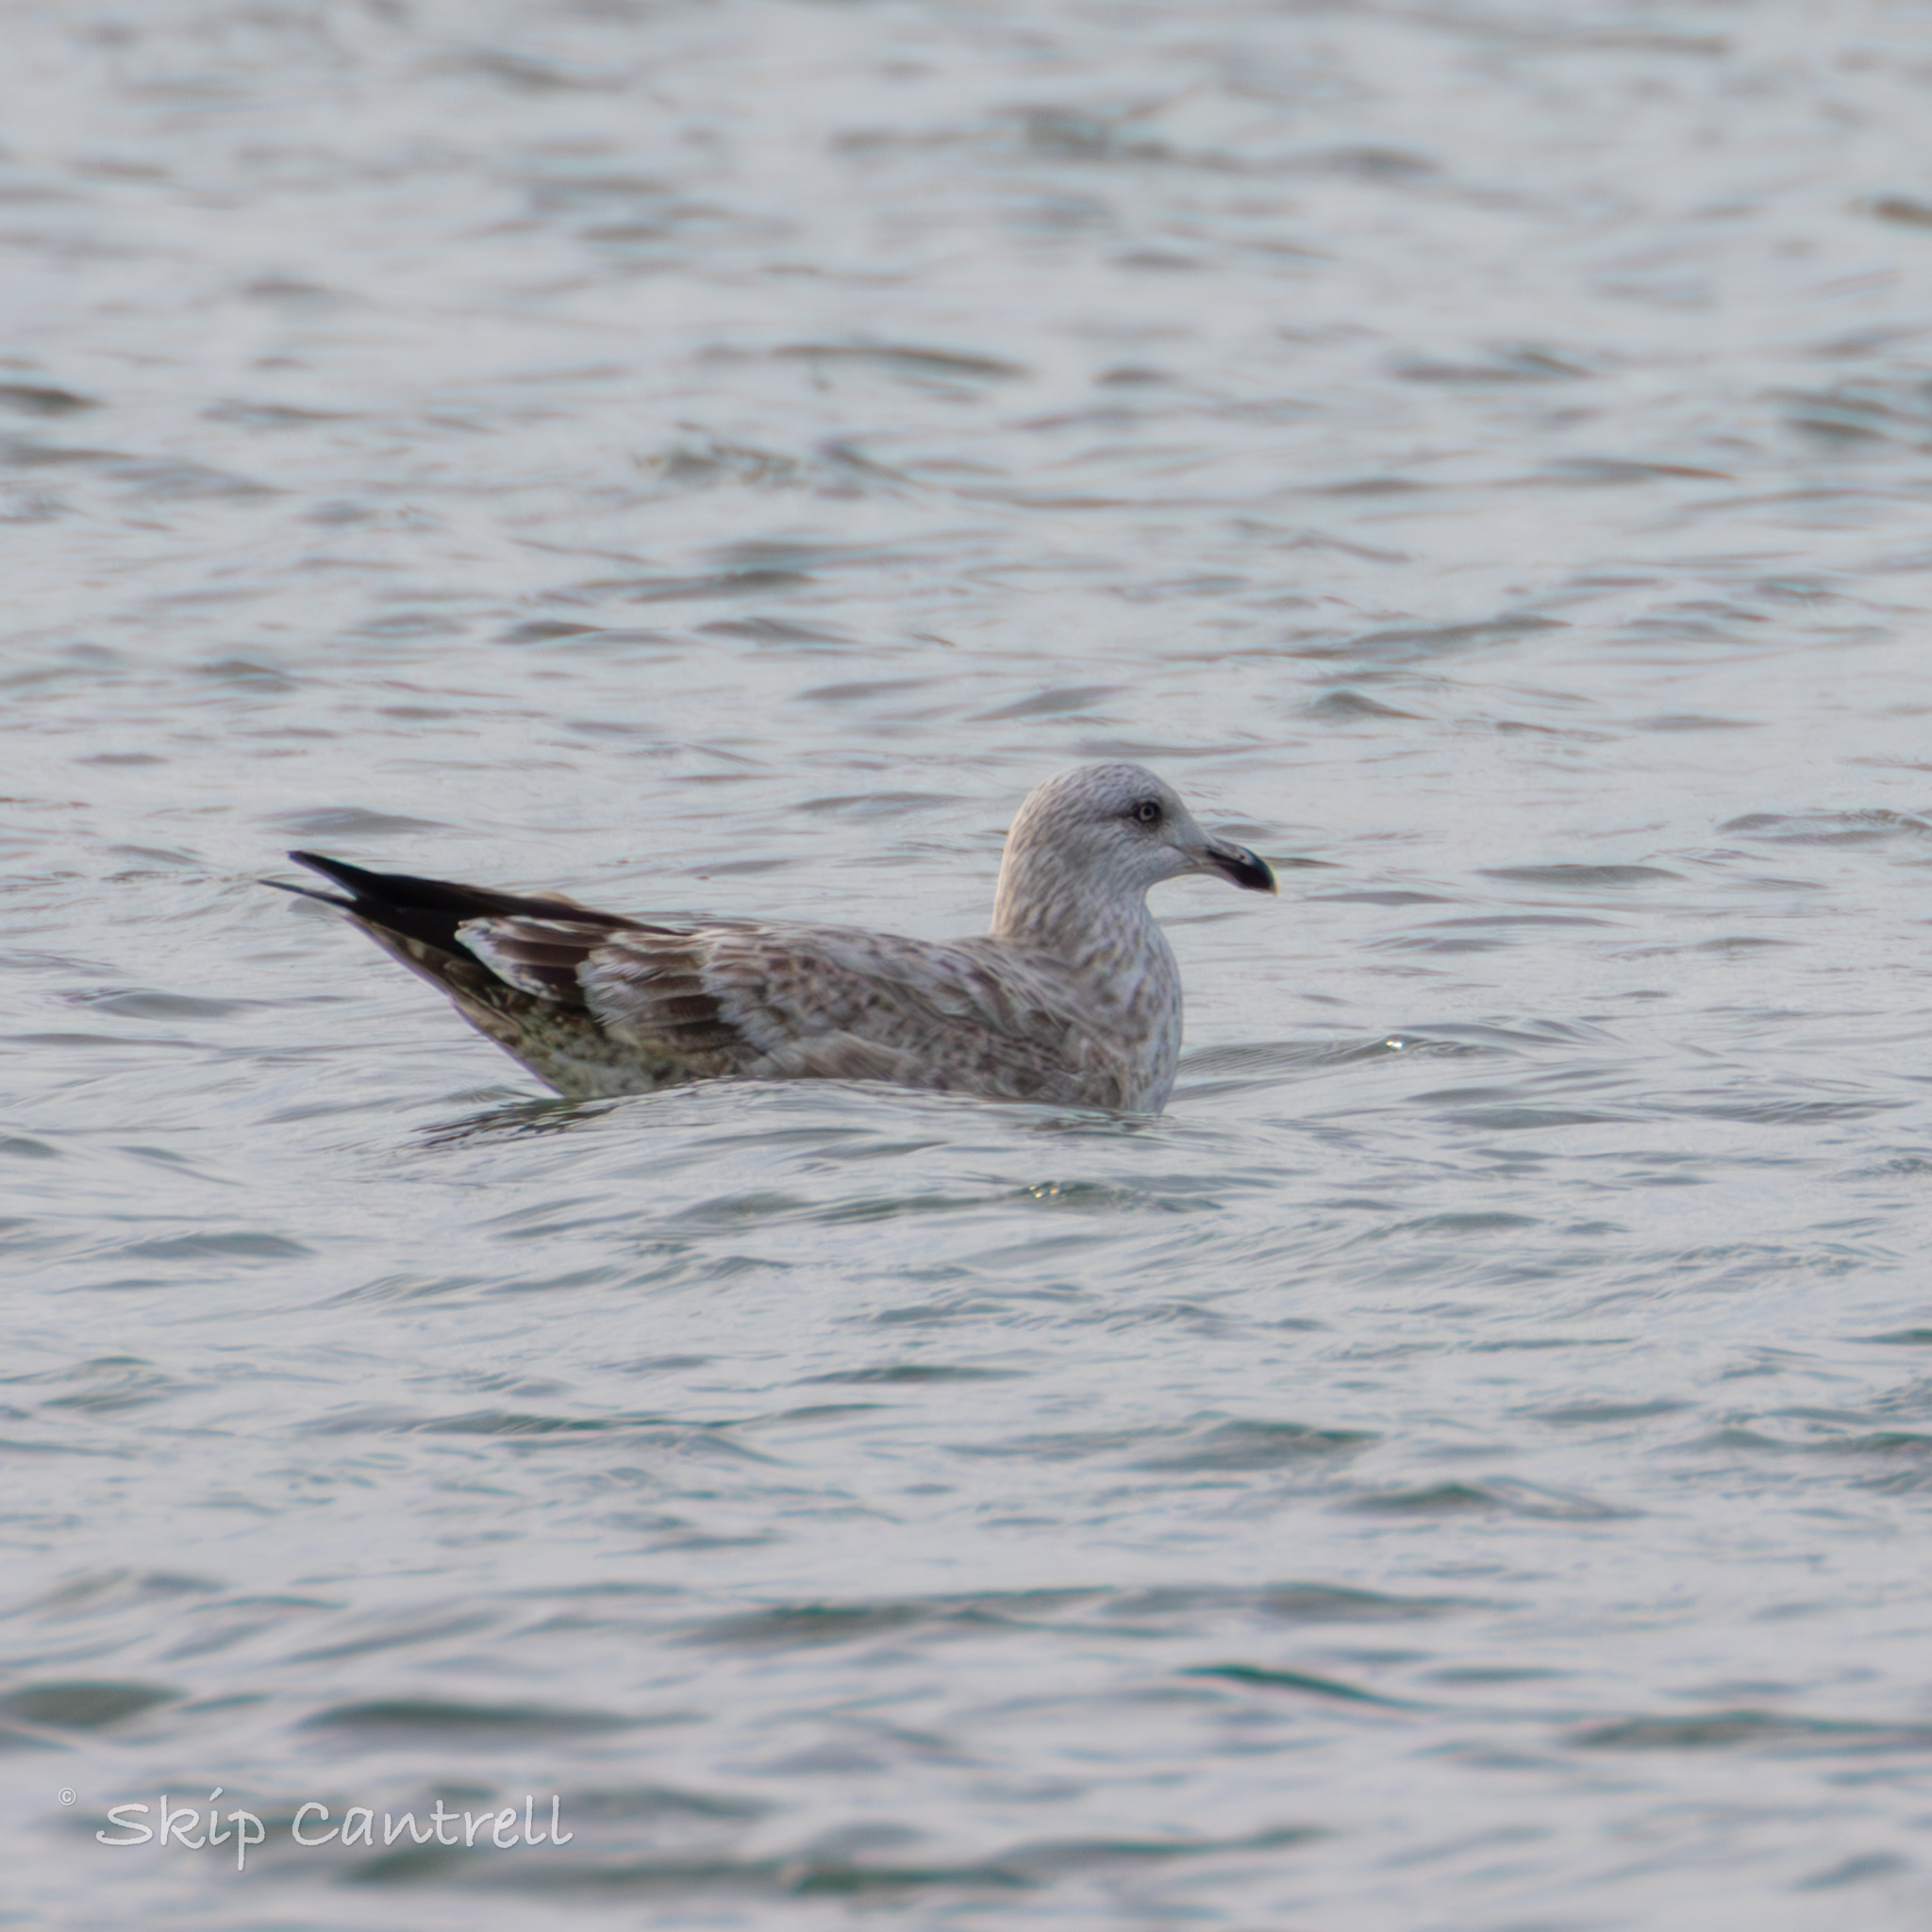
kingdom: Animalia
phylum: Chordata
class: Aves
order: Charadriiformes
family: Laridae
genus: Larus
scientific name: Larus argentatus
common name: Herring gull
